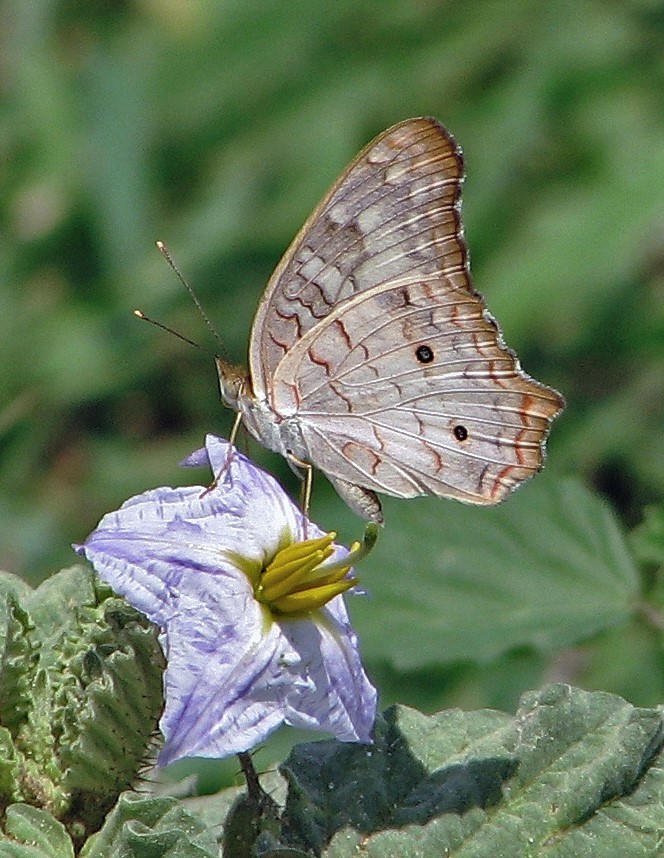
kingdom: Animalia
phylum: Arthropoda
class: Insecta
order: Lepidoptera
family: Nymphalidae
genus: Anartia
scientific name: Anartia jatrophae
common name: White peacock
